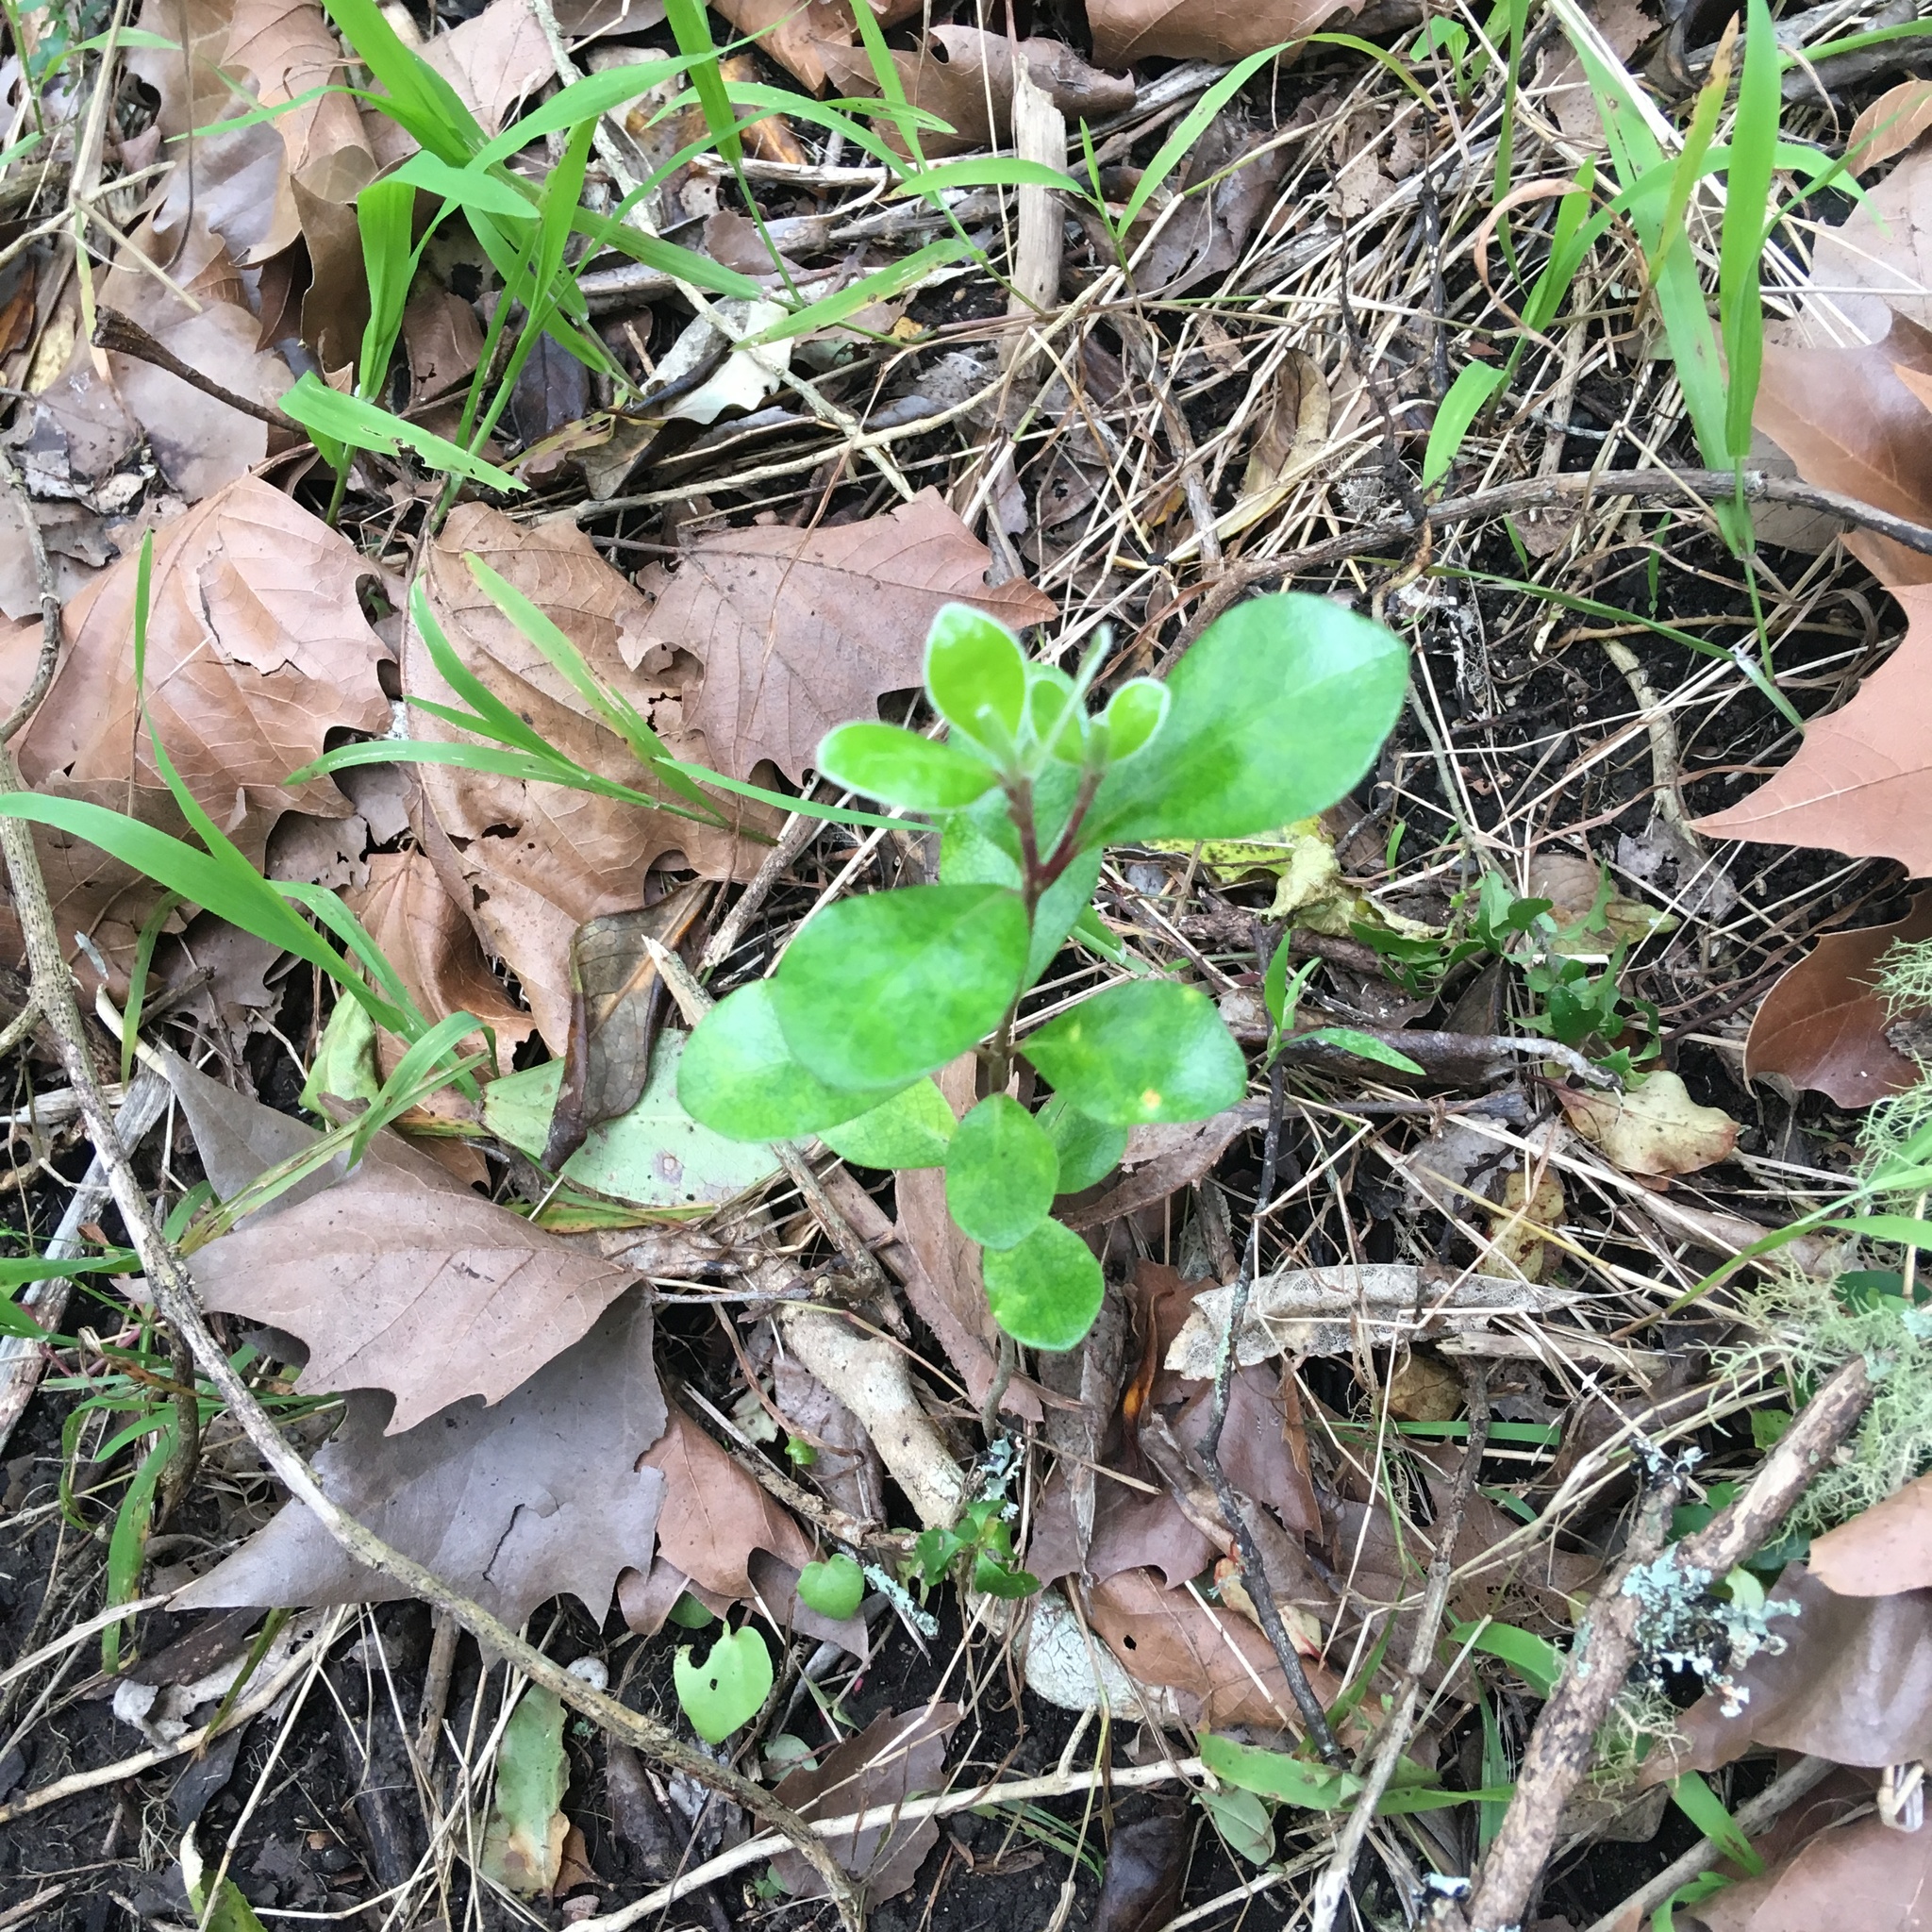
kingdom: Plantae
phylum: Tracheophyta
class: Magnoliopsida
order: Apiales
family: Pittosporaceae
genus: Pittosporum
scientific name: Pittosporum crassifolium
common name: Karo
